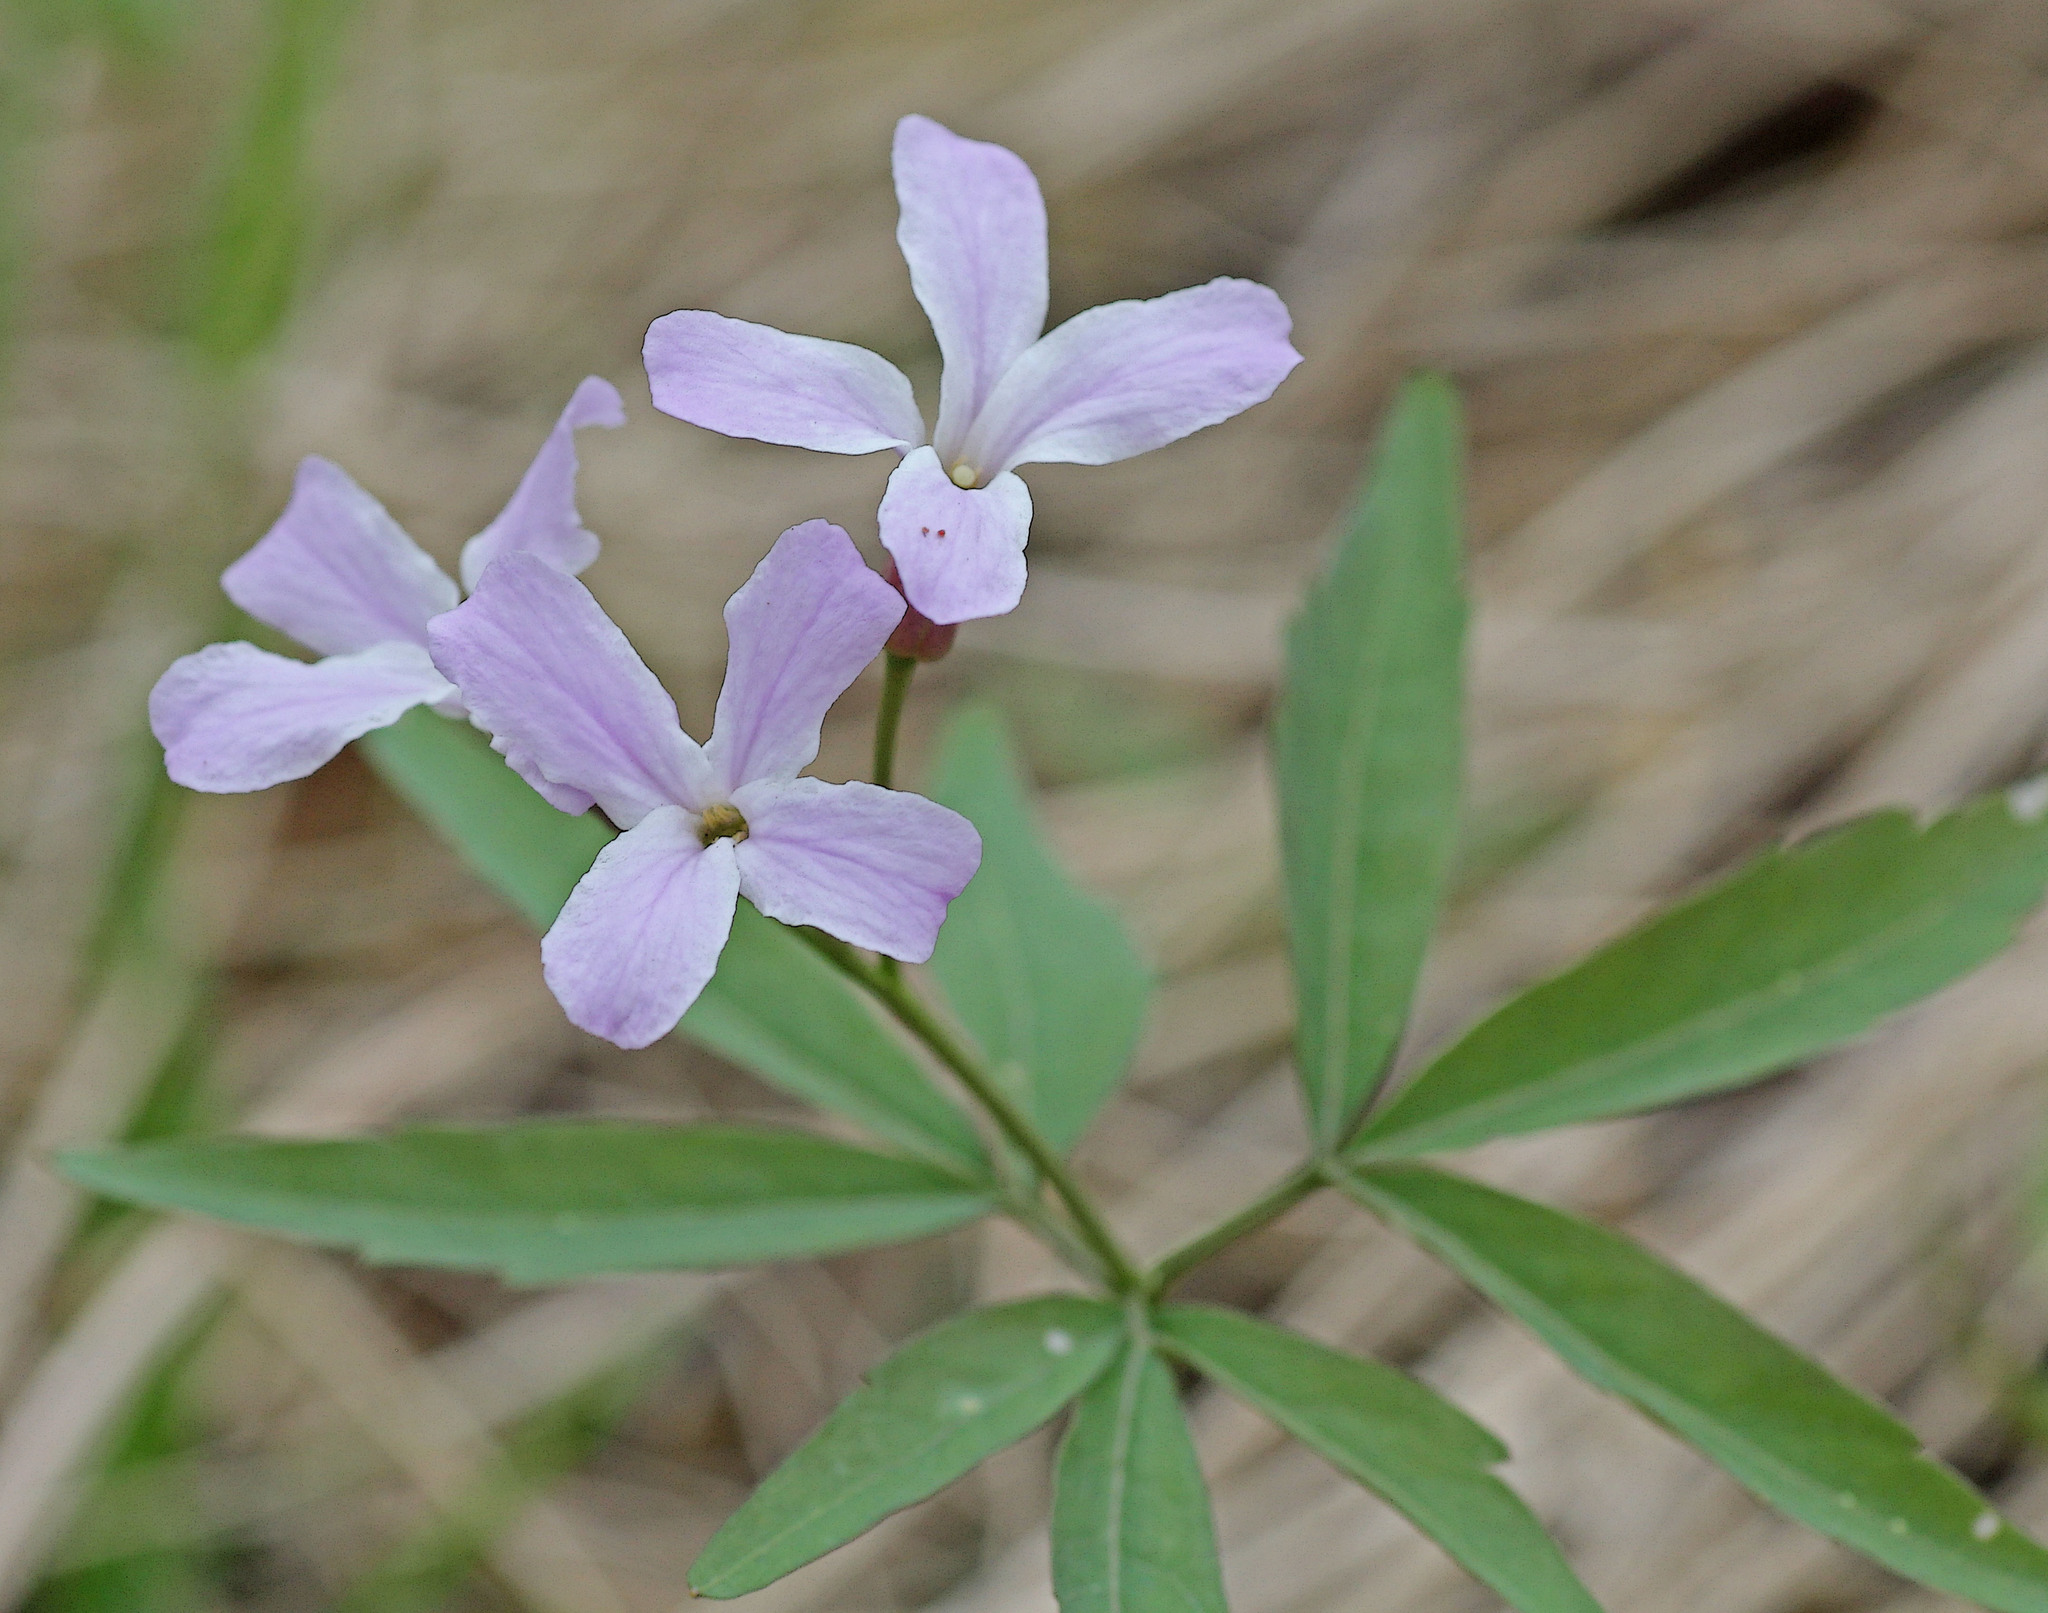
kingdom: Plantae
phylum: Tracheophyta
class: Magnoliopsida
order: Brassicales
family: Brassicaceae
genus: Cardamine
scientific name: Cardamine altaica
